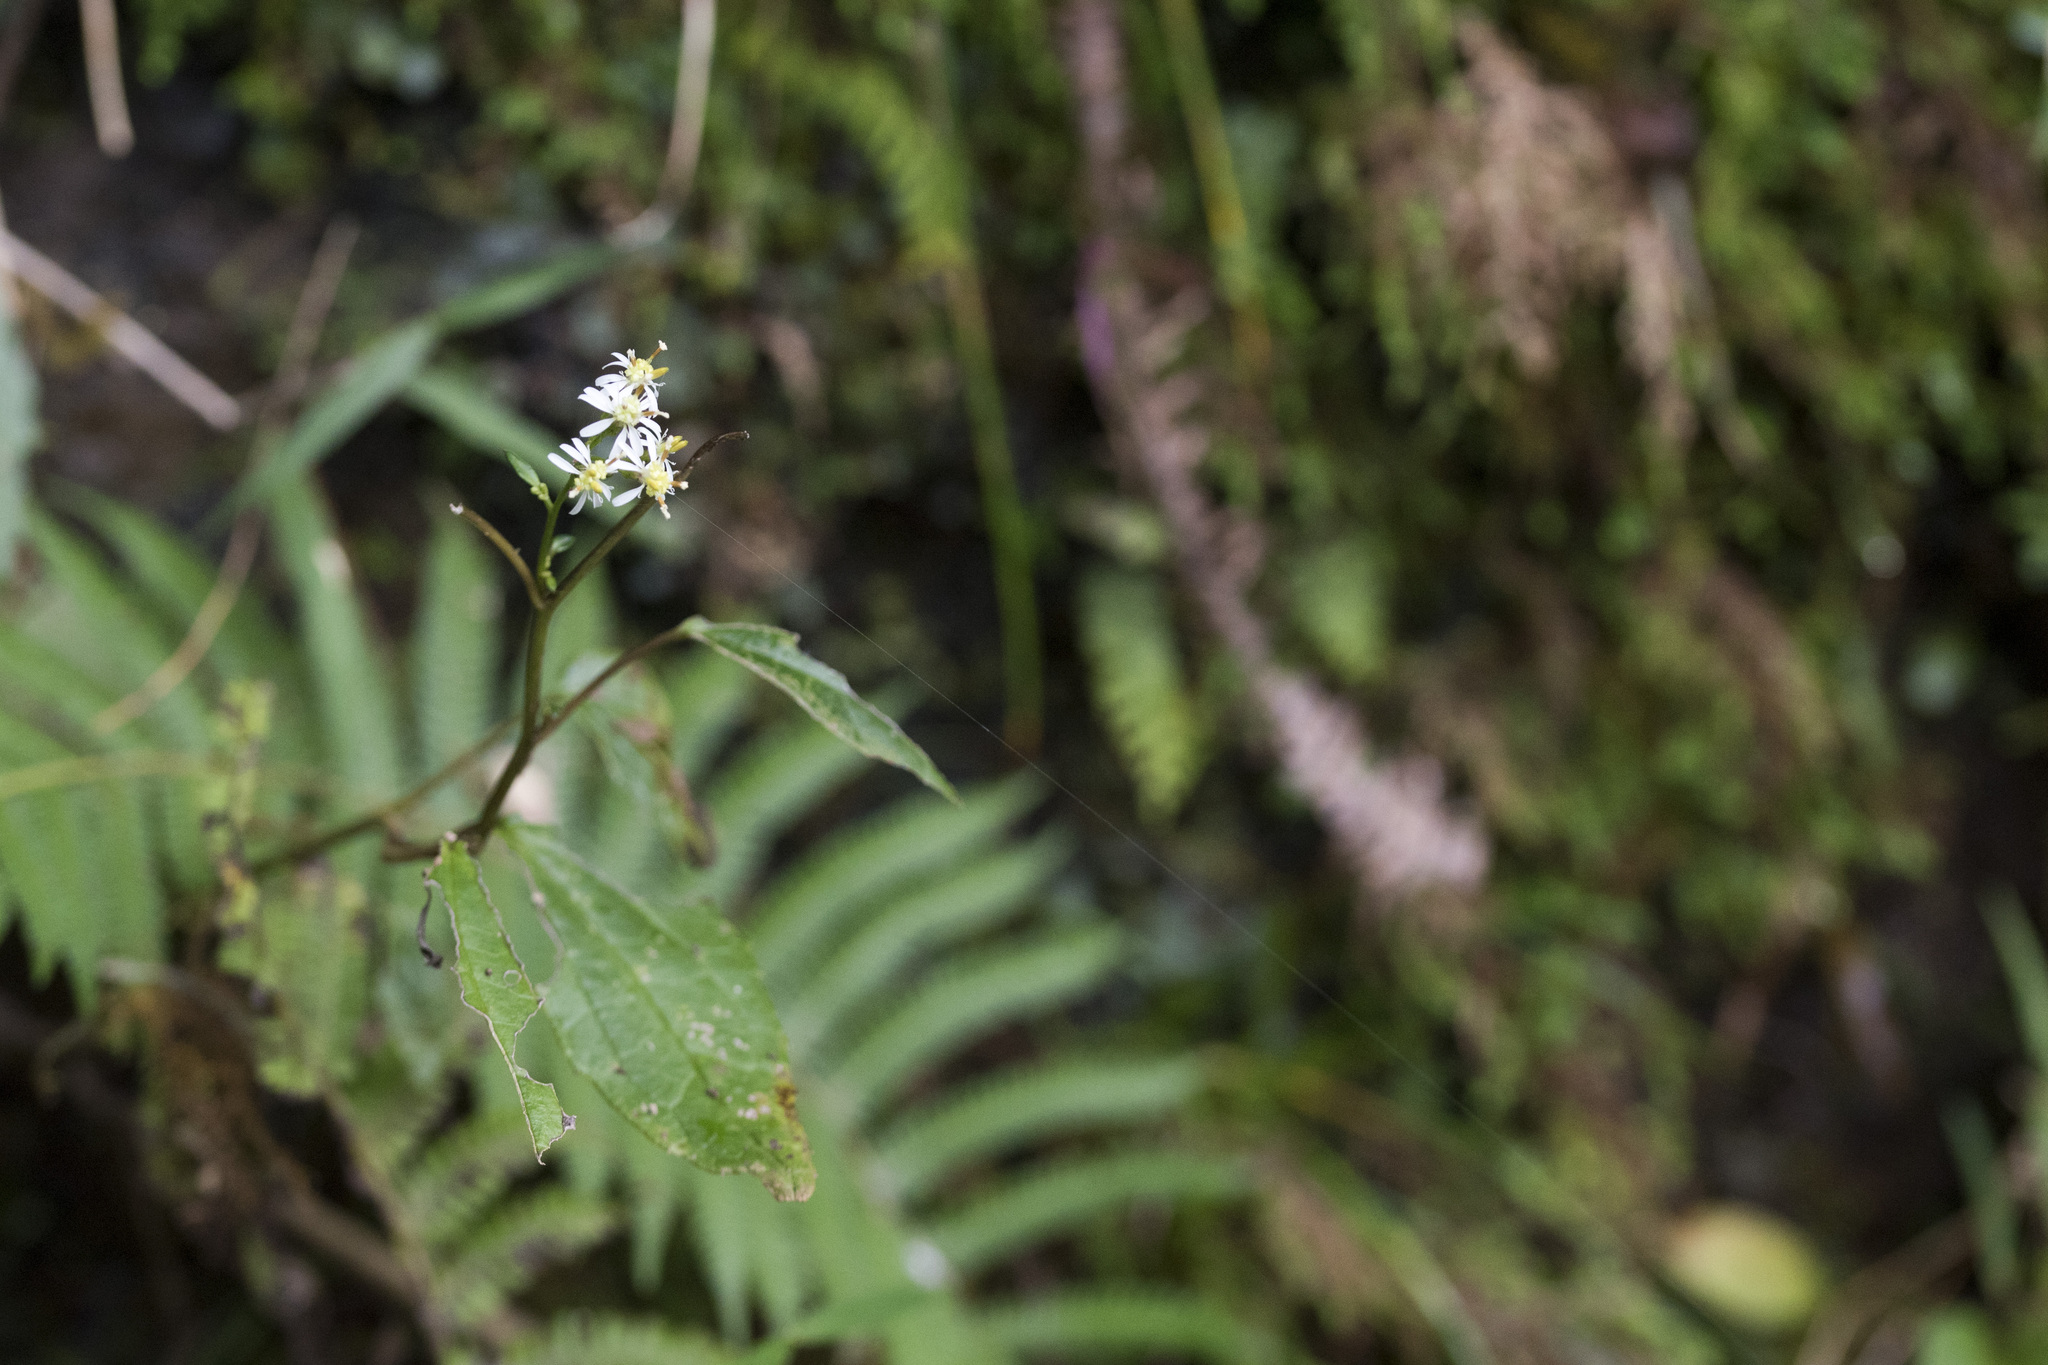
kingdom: Plantae
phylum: Tracheophyta
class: Magnoliopsida
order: Asterales
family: Asteraceae
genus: Aster
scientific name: Aster formosanus
